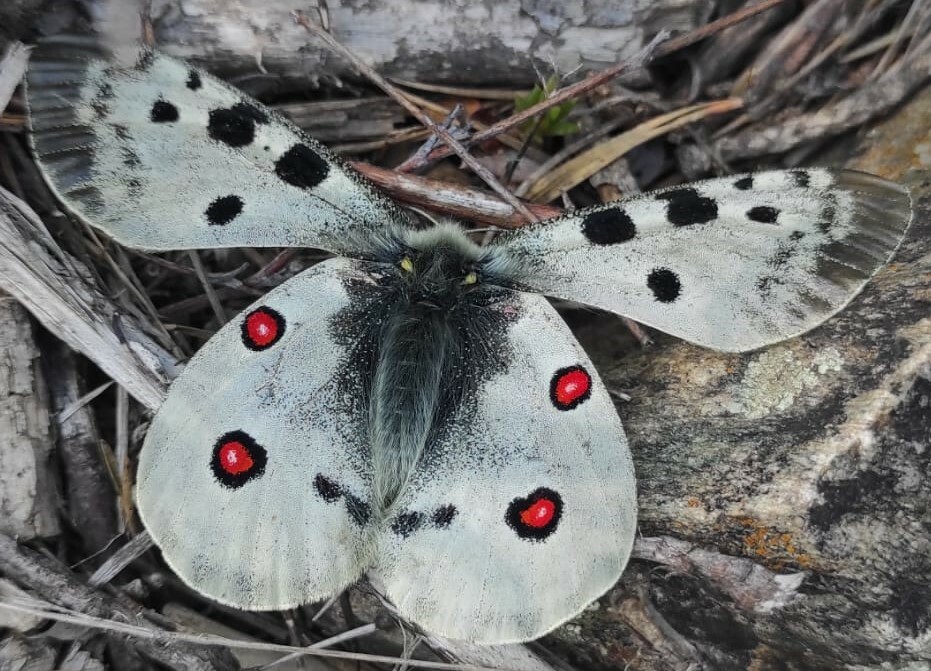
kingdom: Animalia
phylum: Arthropoda
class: Insecta
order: Lepidoptera
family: Papilionidae
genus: Parnassius
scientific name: Parnassius apollo
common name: Apollo
